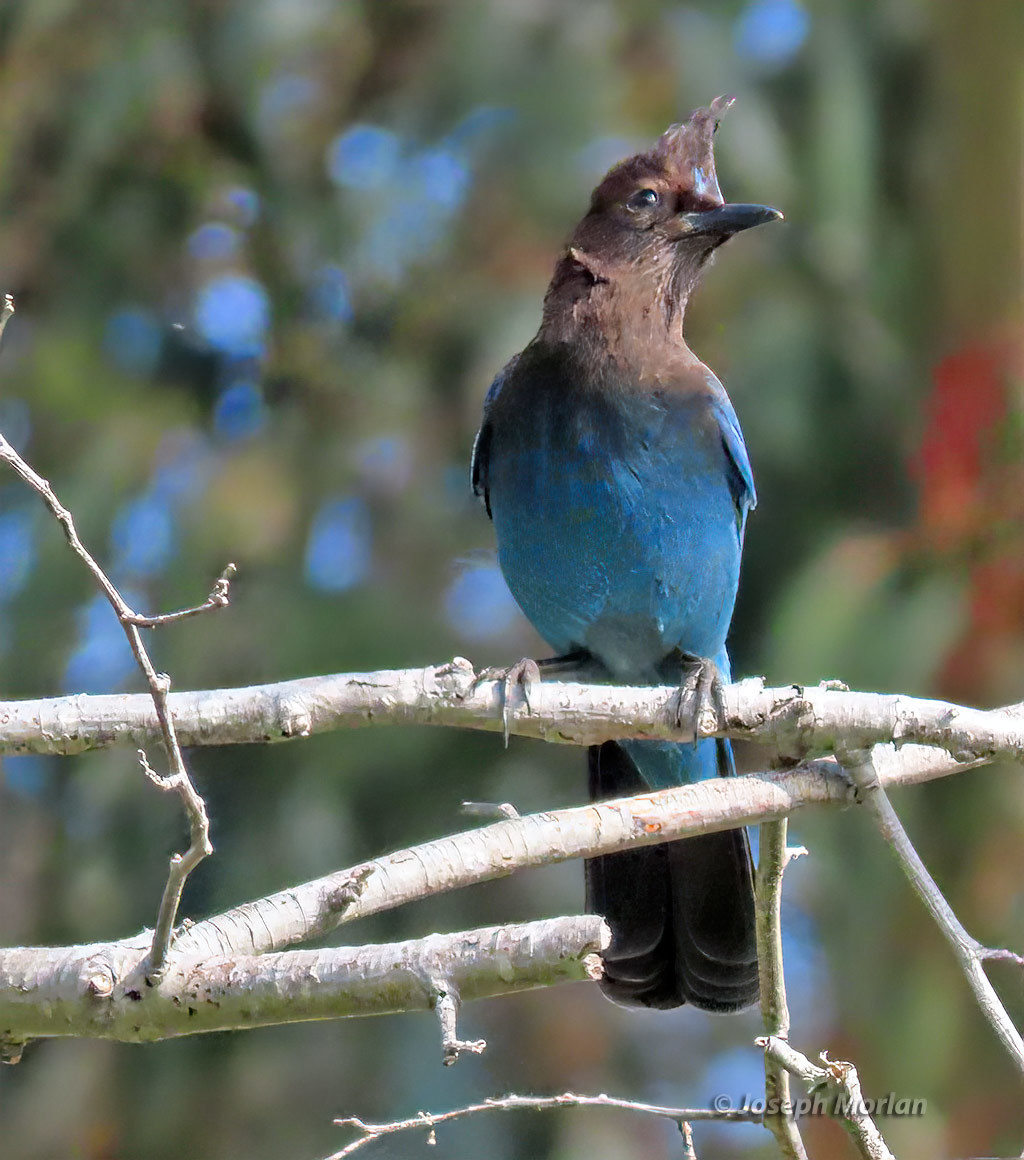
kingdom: Animalia
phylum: Chordata
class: Aves
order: Passeriformes
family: Corvidae
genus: Cyanocitta
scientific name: Cyanocitta stelleri
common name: Steller's jay
